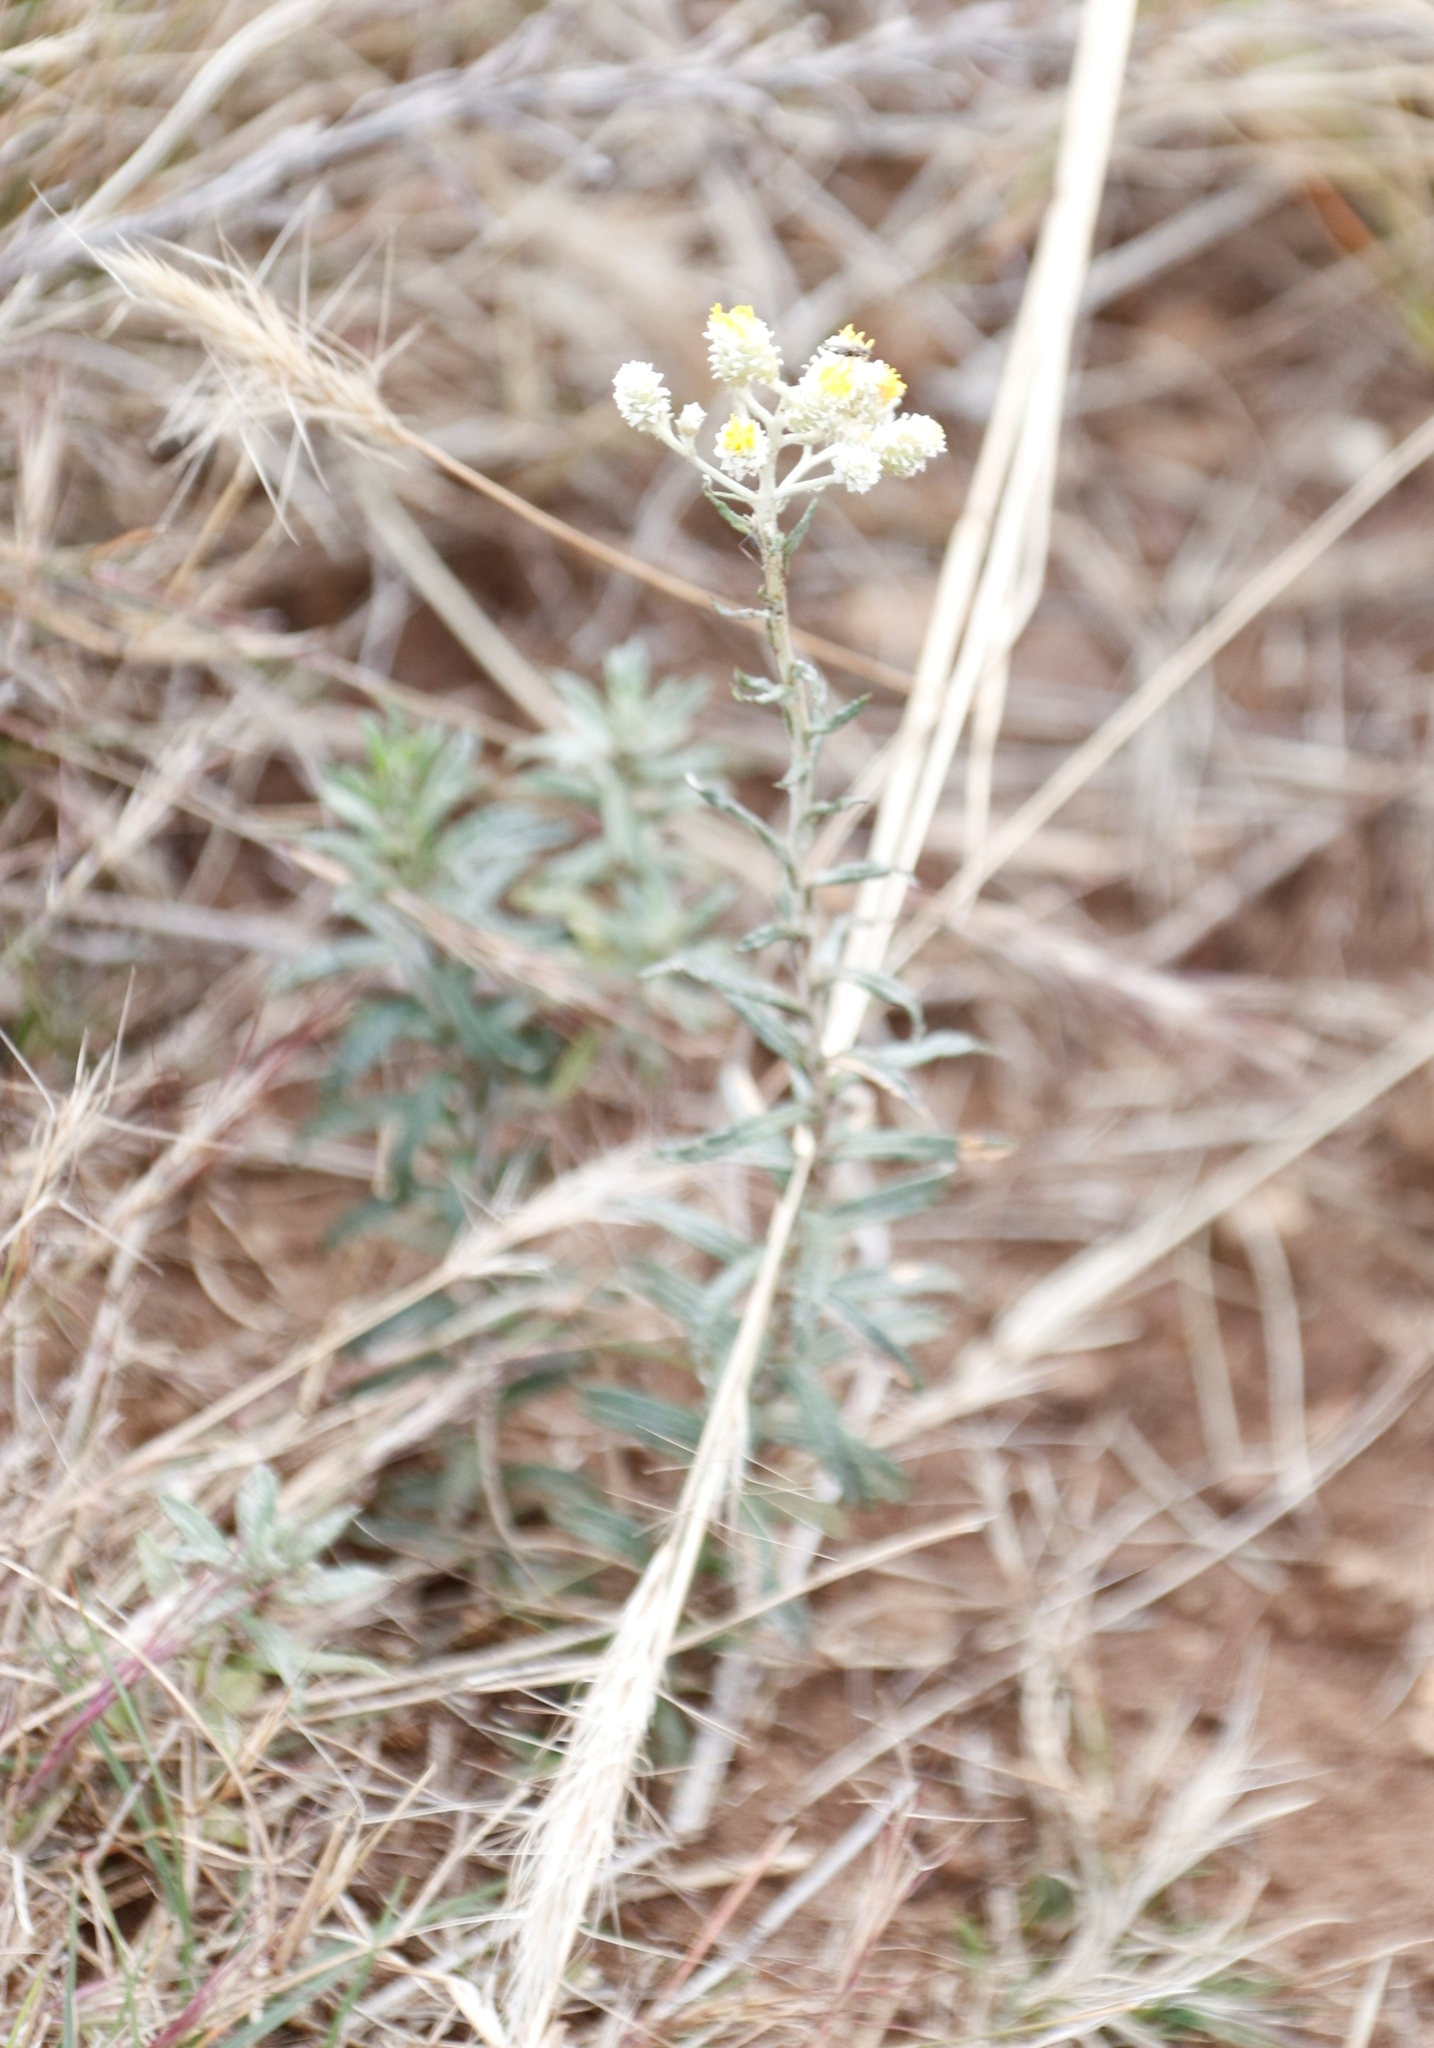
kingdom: Plantae
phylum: Tracheophyta
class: Magnoliopsida
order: Asterales
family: Asteraceae
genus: Helichrysum
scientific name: Helichrysum rugulosum
